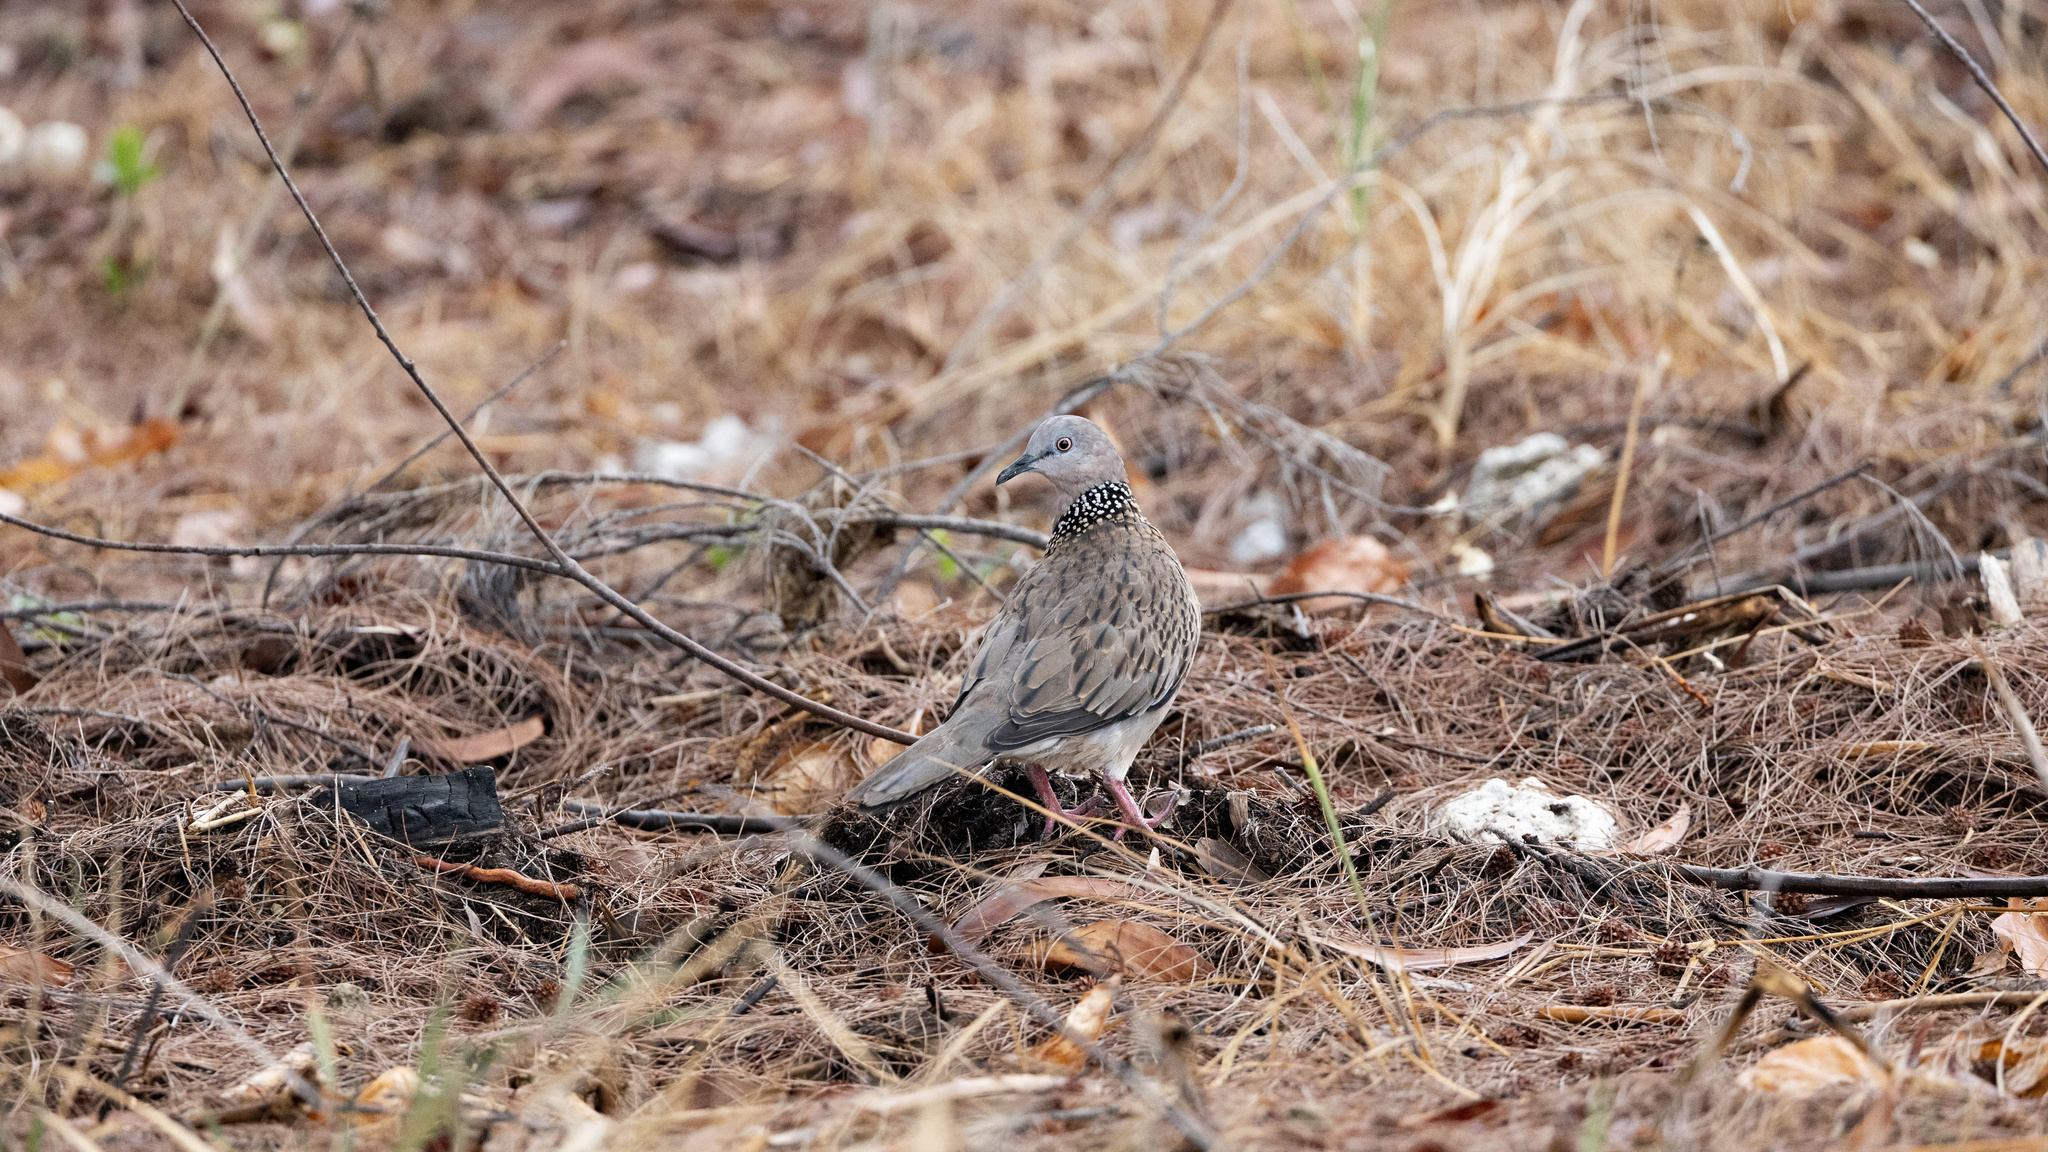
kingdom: Animalia
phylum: Chordata
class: Aves
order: Columbiformes
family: Columbidae
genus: Spilopelia
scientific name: Spilopelia chinensis
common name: Spotted dove
